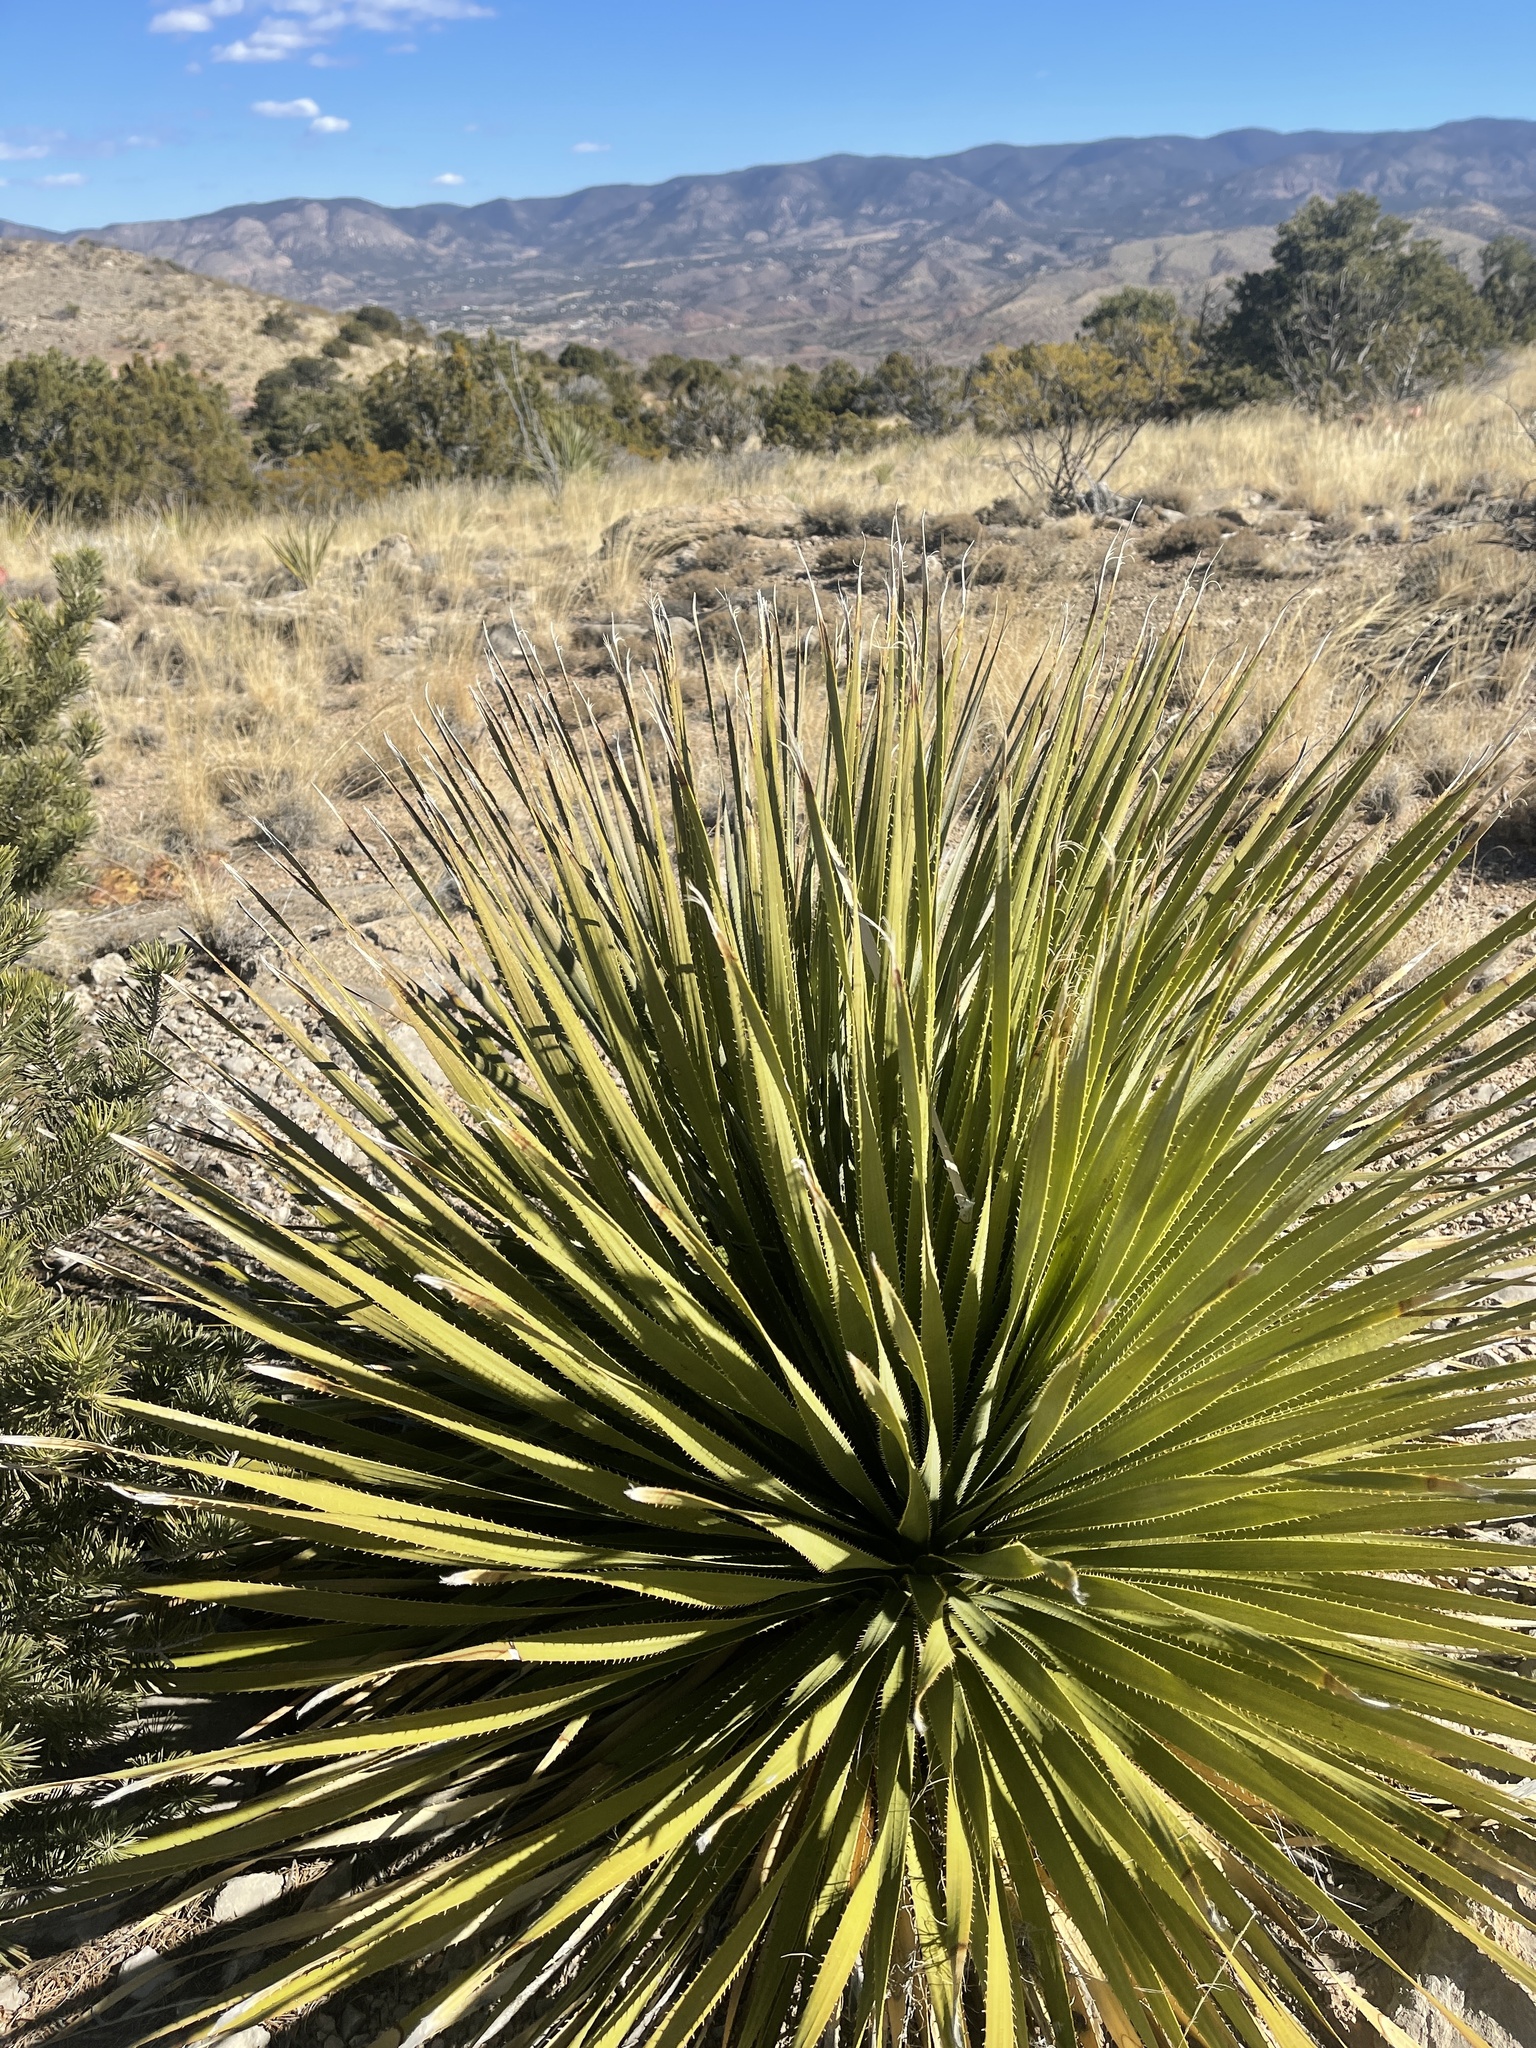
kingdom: Plantae
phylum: Tracheophyta
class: Liliopsida
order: Asparagales
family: Asparagaceae
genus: Dasylirion
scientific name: Dasylirion wheeleri
